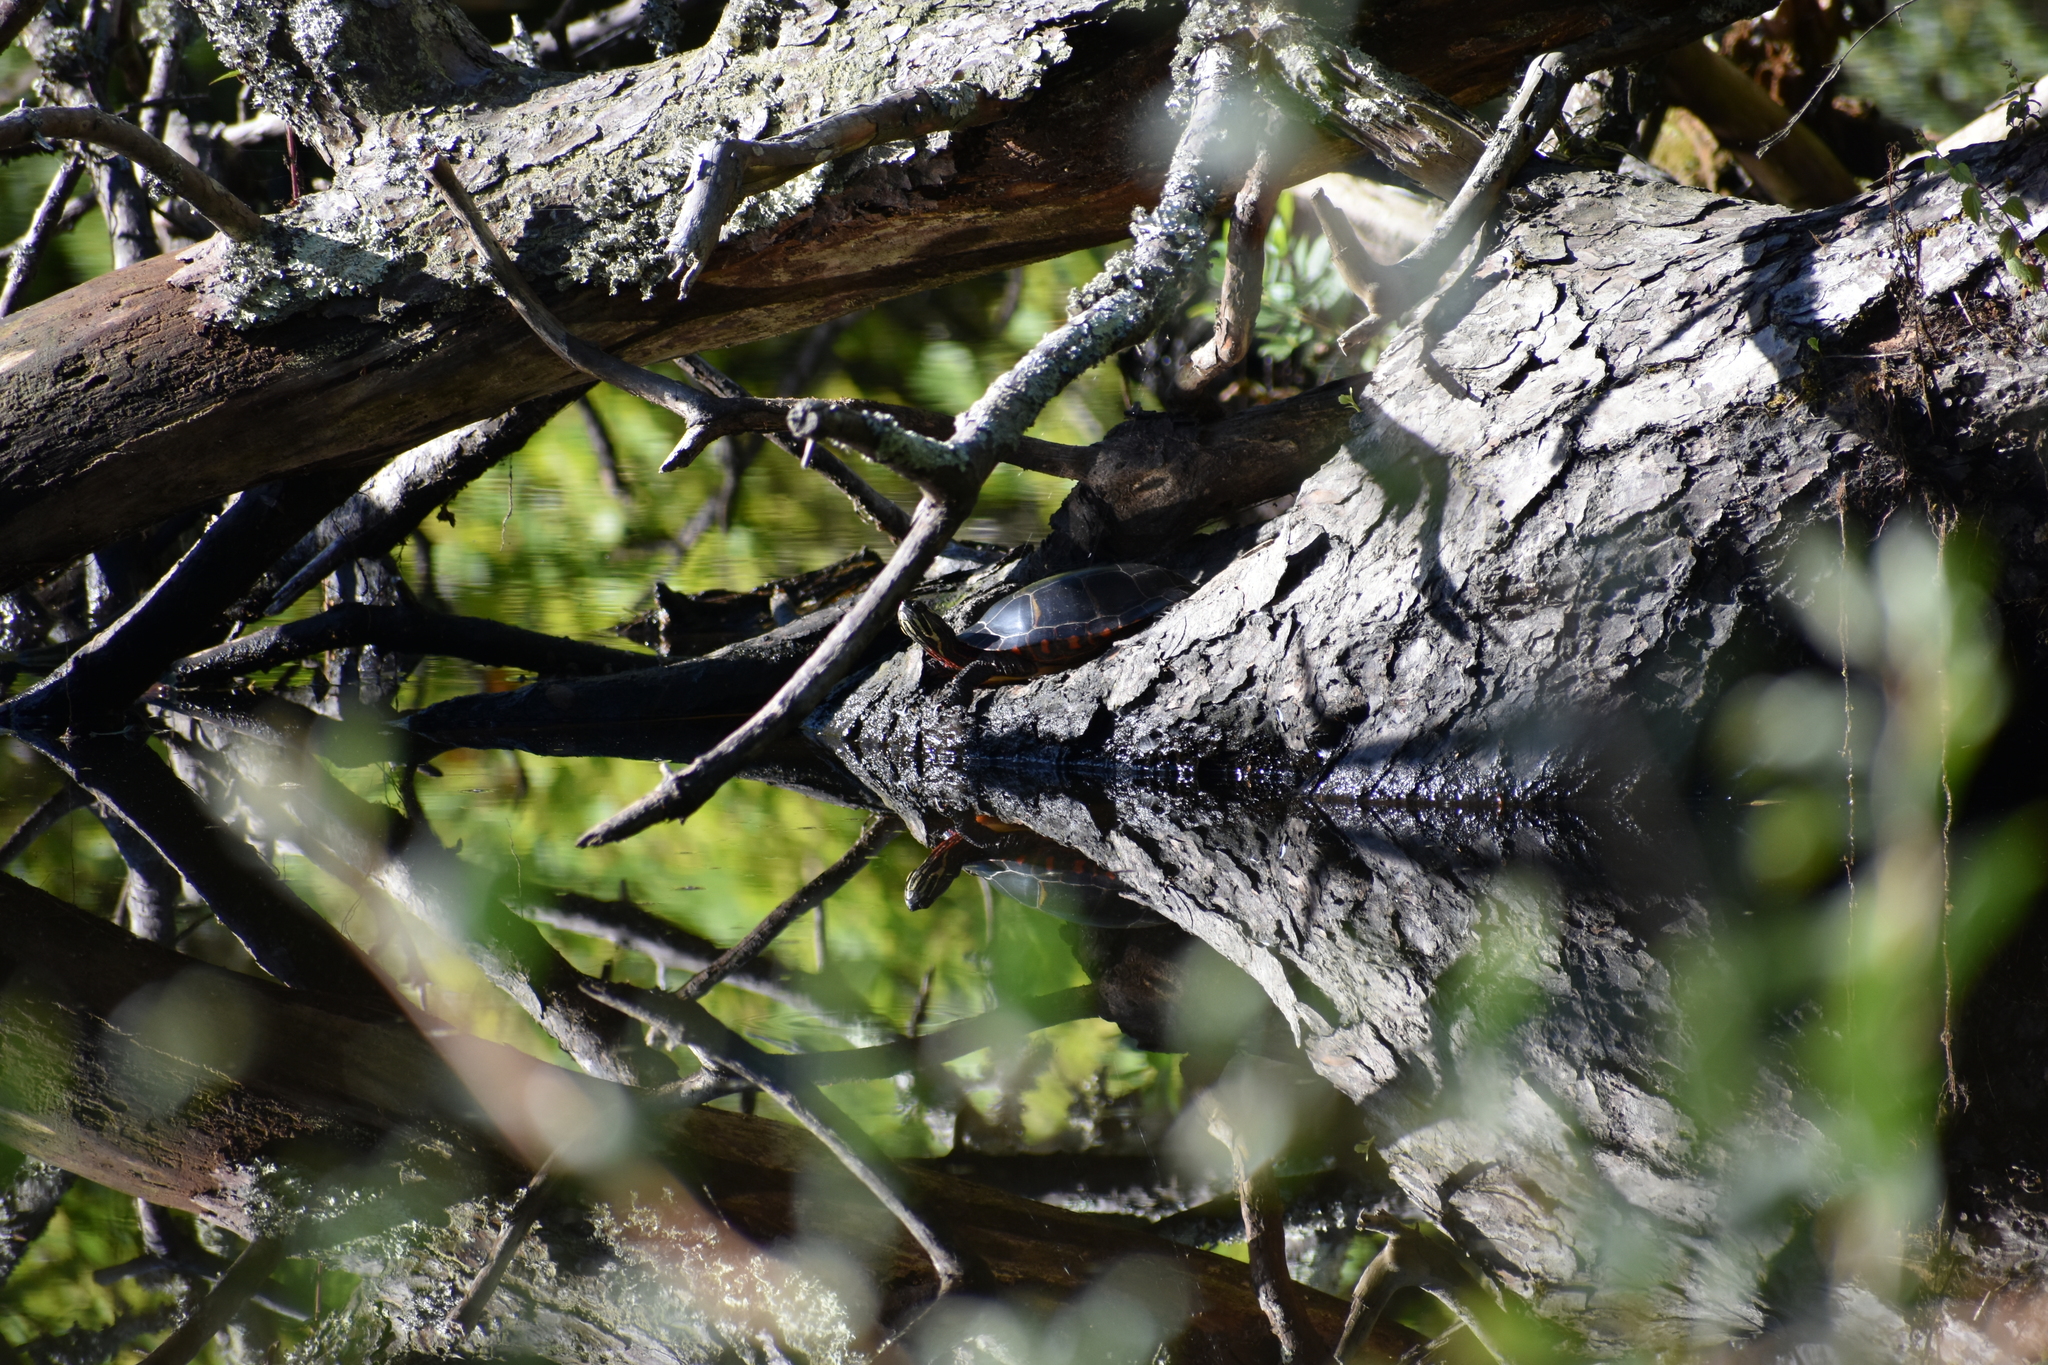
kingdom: Animalia
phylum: Chordata
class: Testudines
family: Emydidae
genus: Chrysemys
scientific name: Chrysemys picta
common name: Painted turtle
